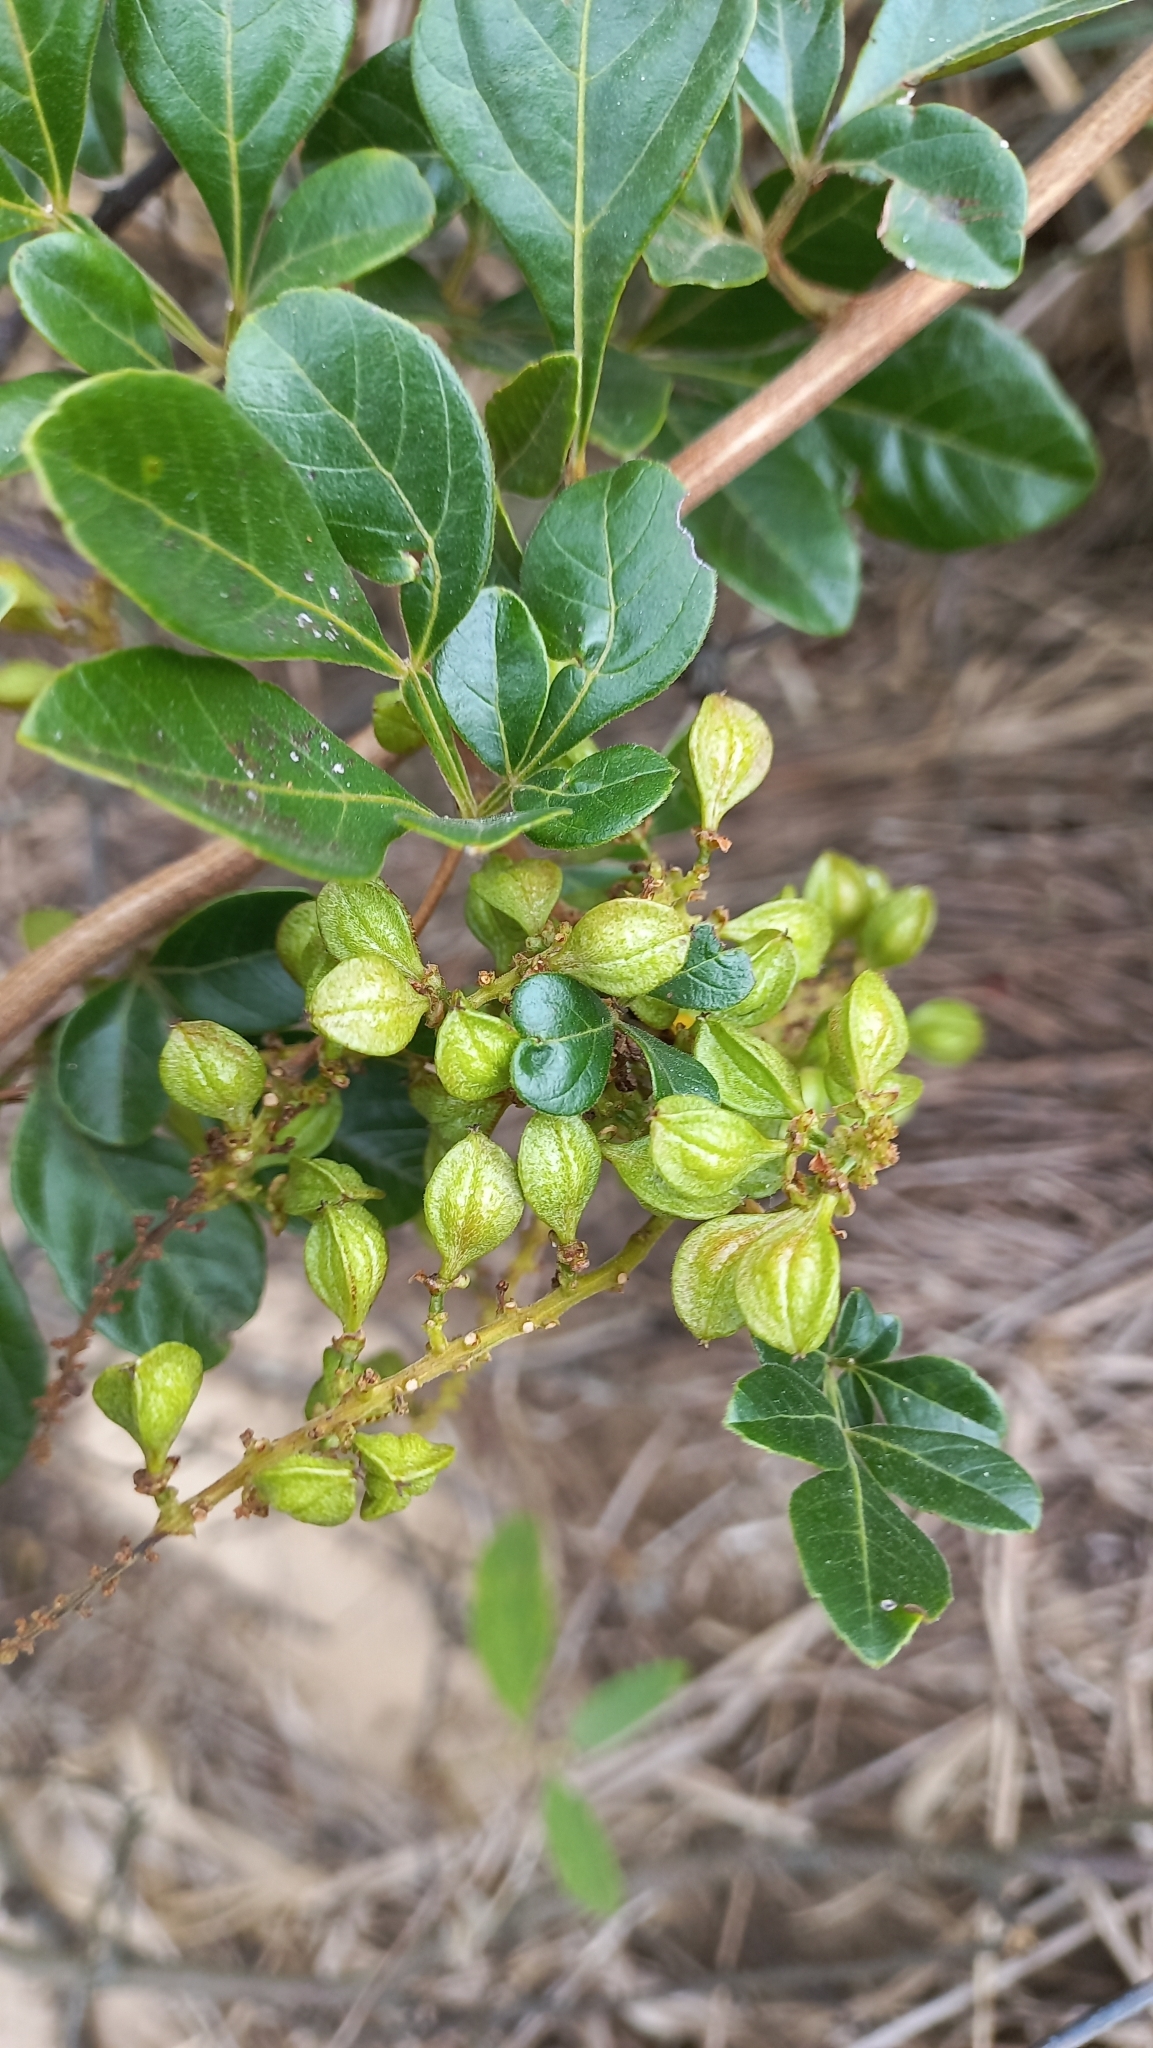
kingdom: Plantae
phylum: Tracheophyta
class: Magnoliopsida
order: Sapindales
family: Sapindaceae
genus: Paullinia
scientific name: Paullinia trigonia
